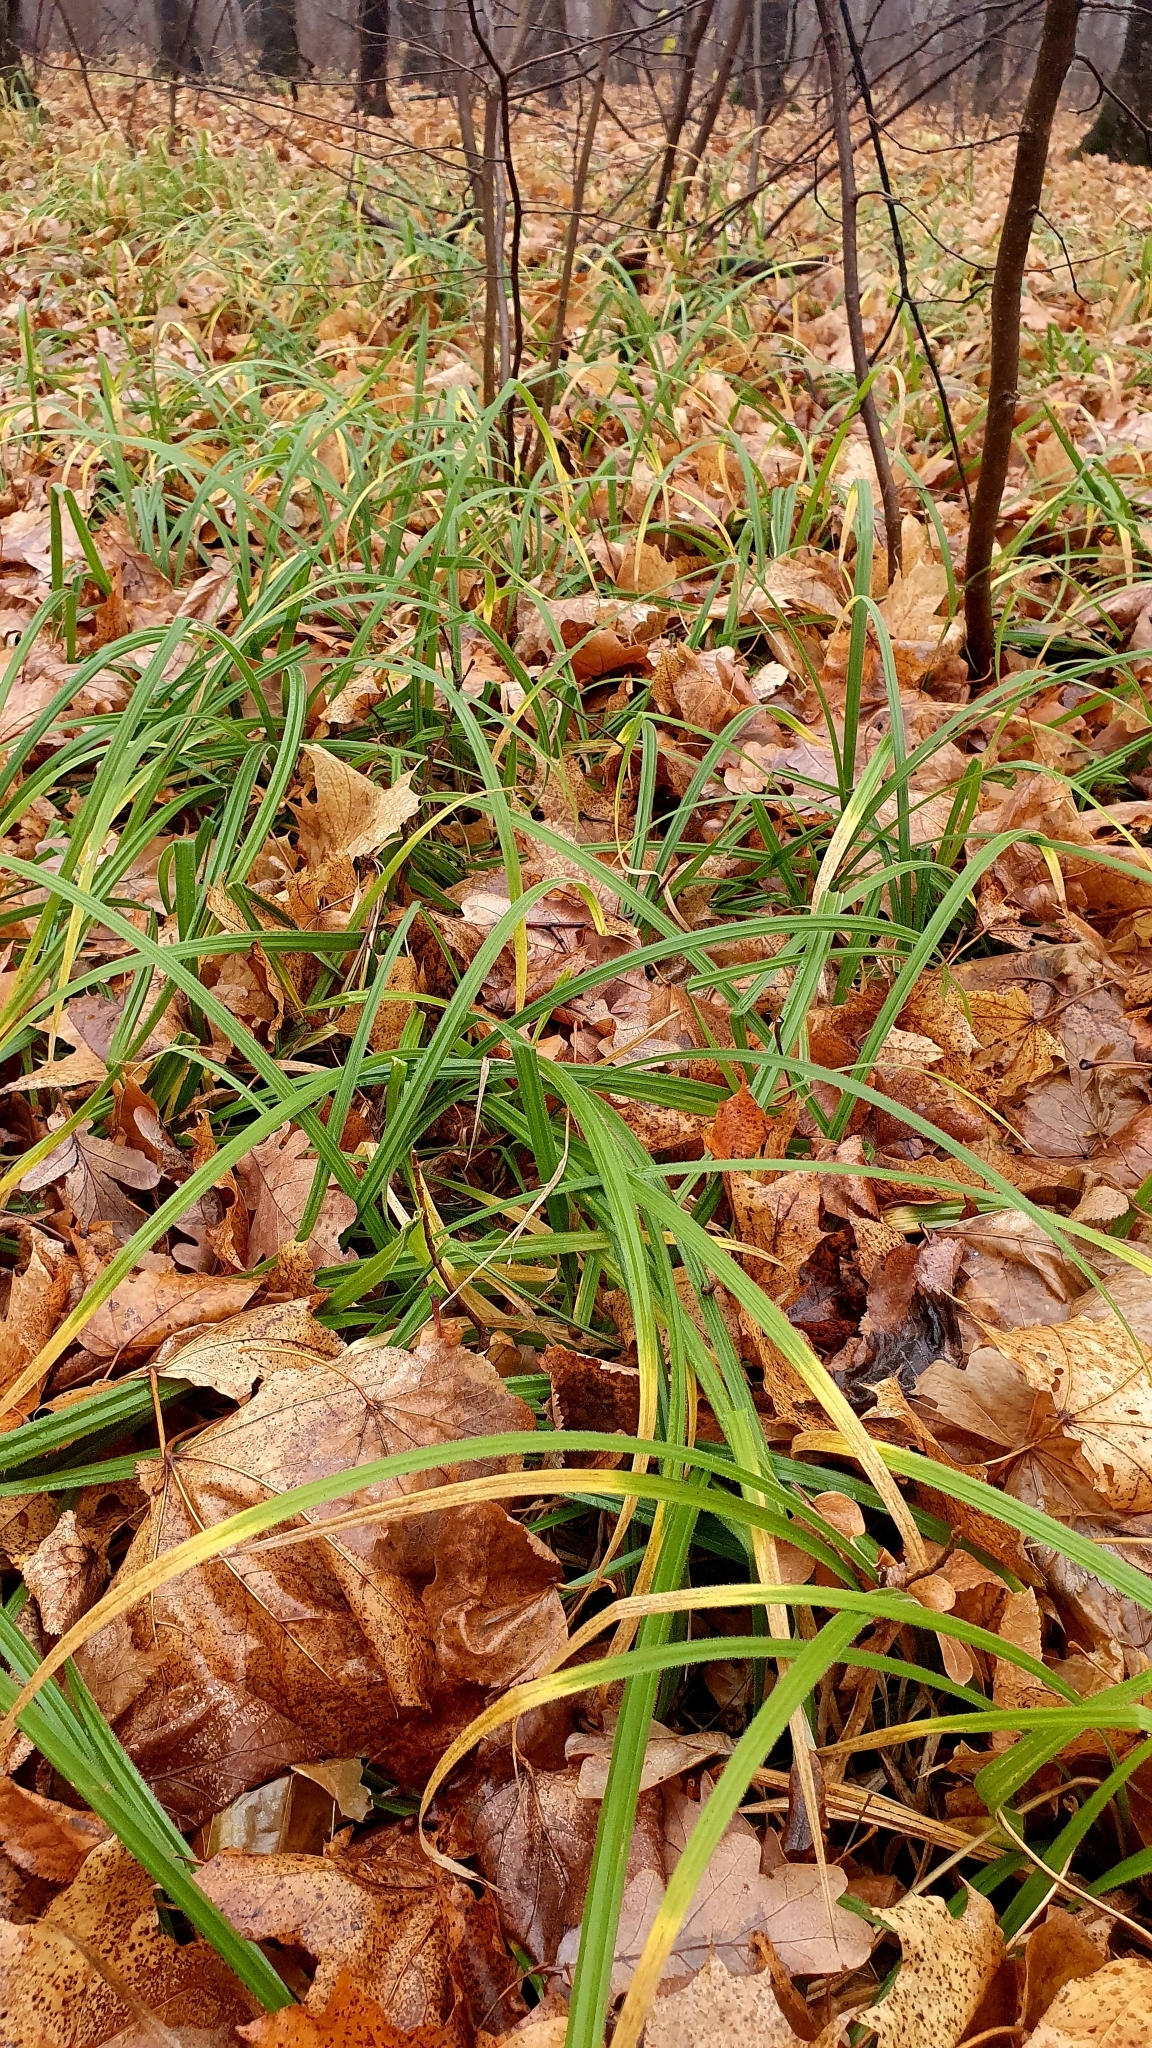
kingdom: Plantae
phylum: Tracheophyta
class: Liliopsida
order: Poales
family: Cyperaceae
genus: Carex
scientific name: Carex pilosa
